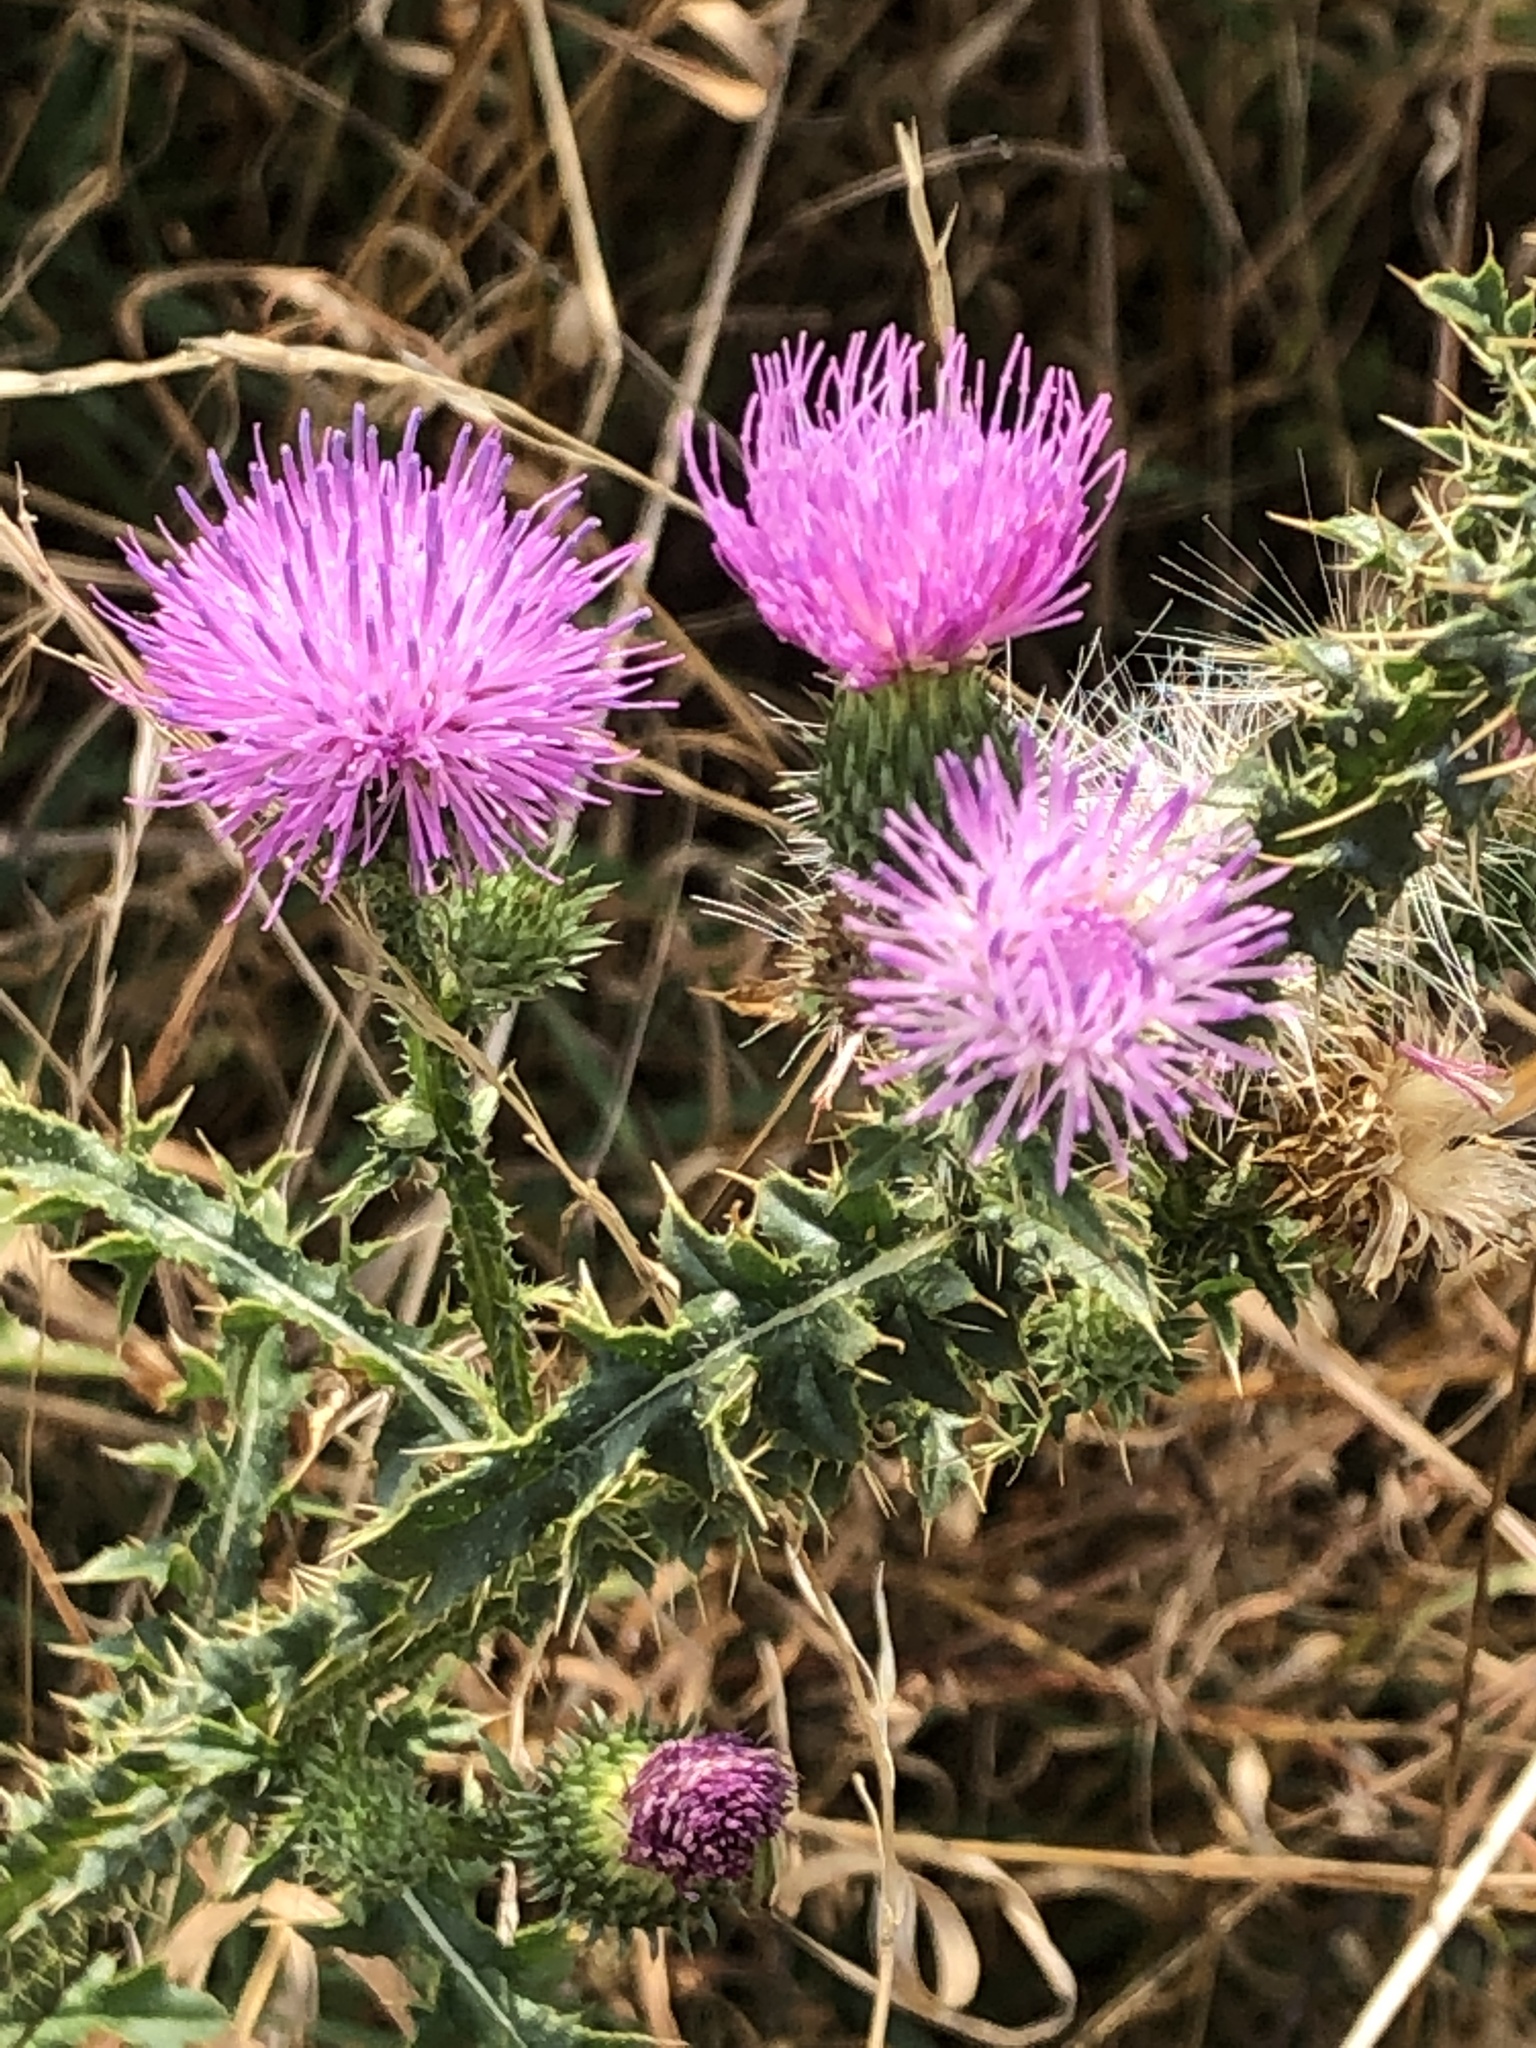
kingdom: Plantae
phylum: Tracheophyta
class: Magnoliopsida
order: Asterales
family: Asteraceae
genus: Carduus
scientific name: Carduus acanthoides
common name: Plumeless thistle
